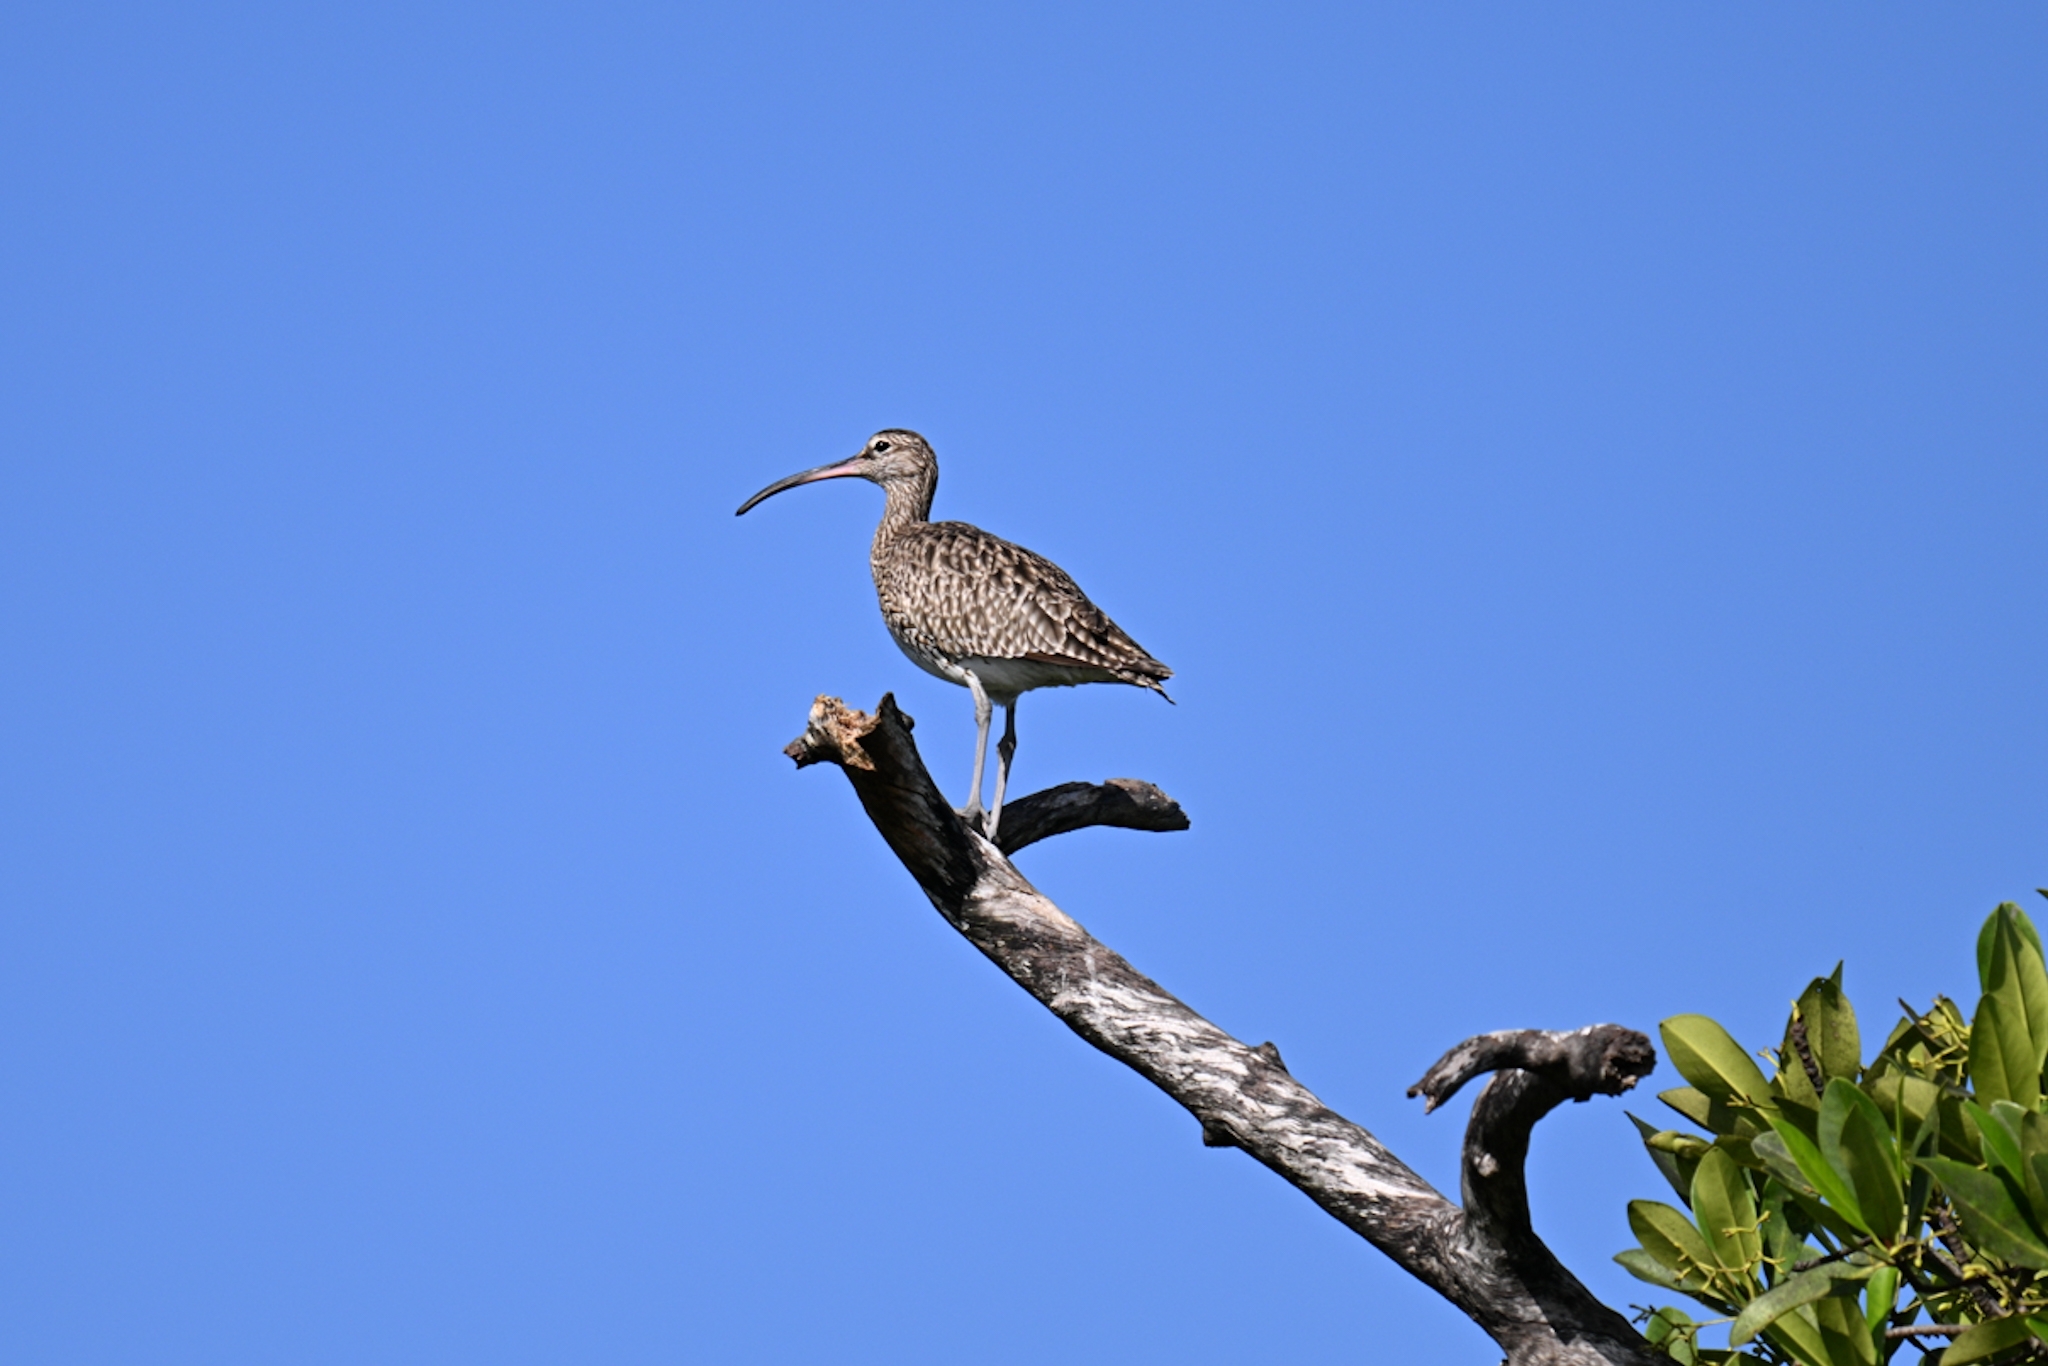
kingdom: Animalia
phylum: Chordata
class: Aves
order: Charadriiformes
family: Scolopacidae
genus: Numenius
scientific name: Numenius phaeopus
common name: Whimbrel
